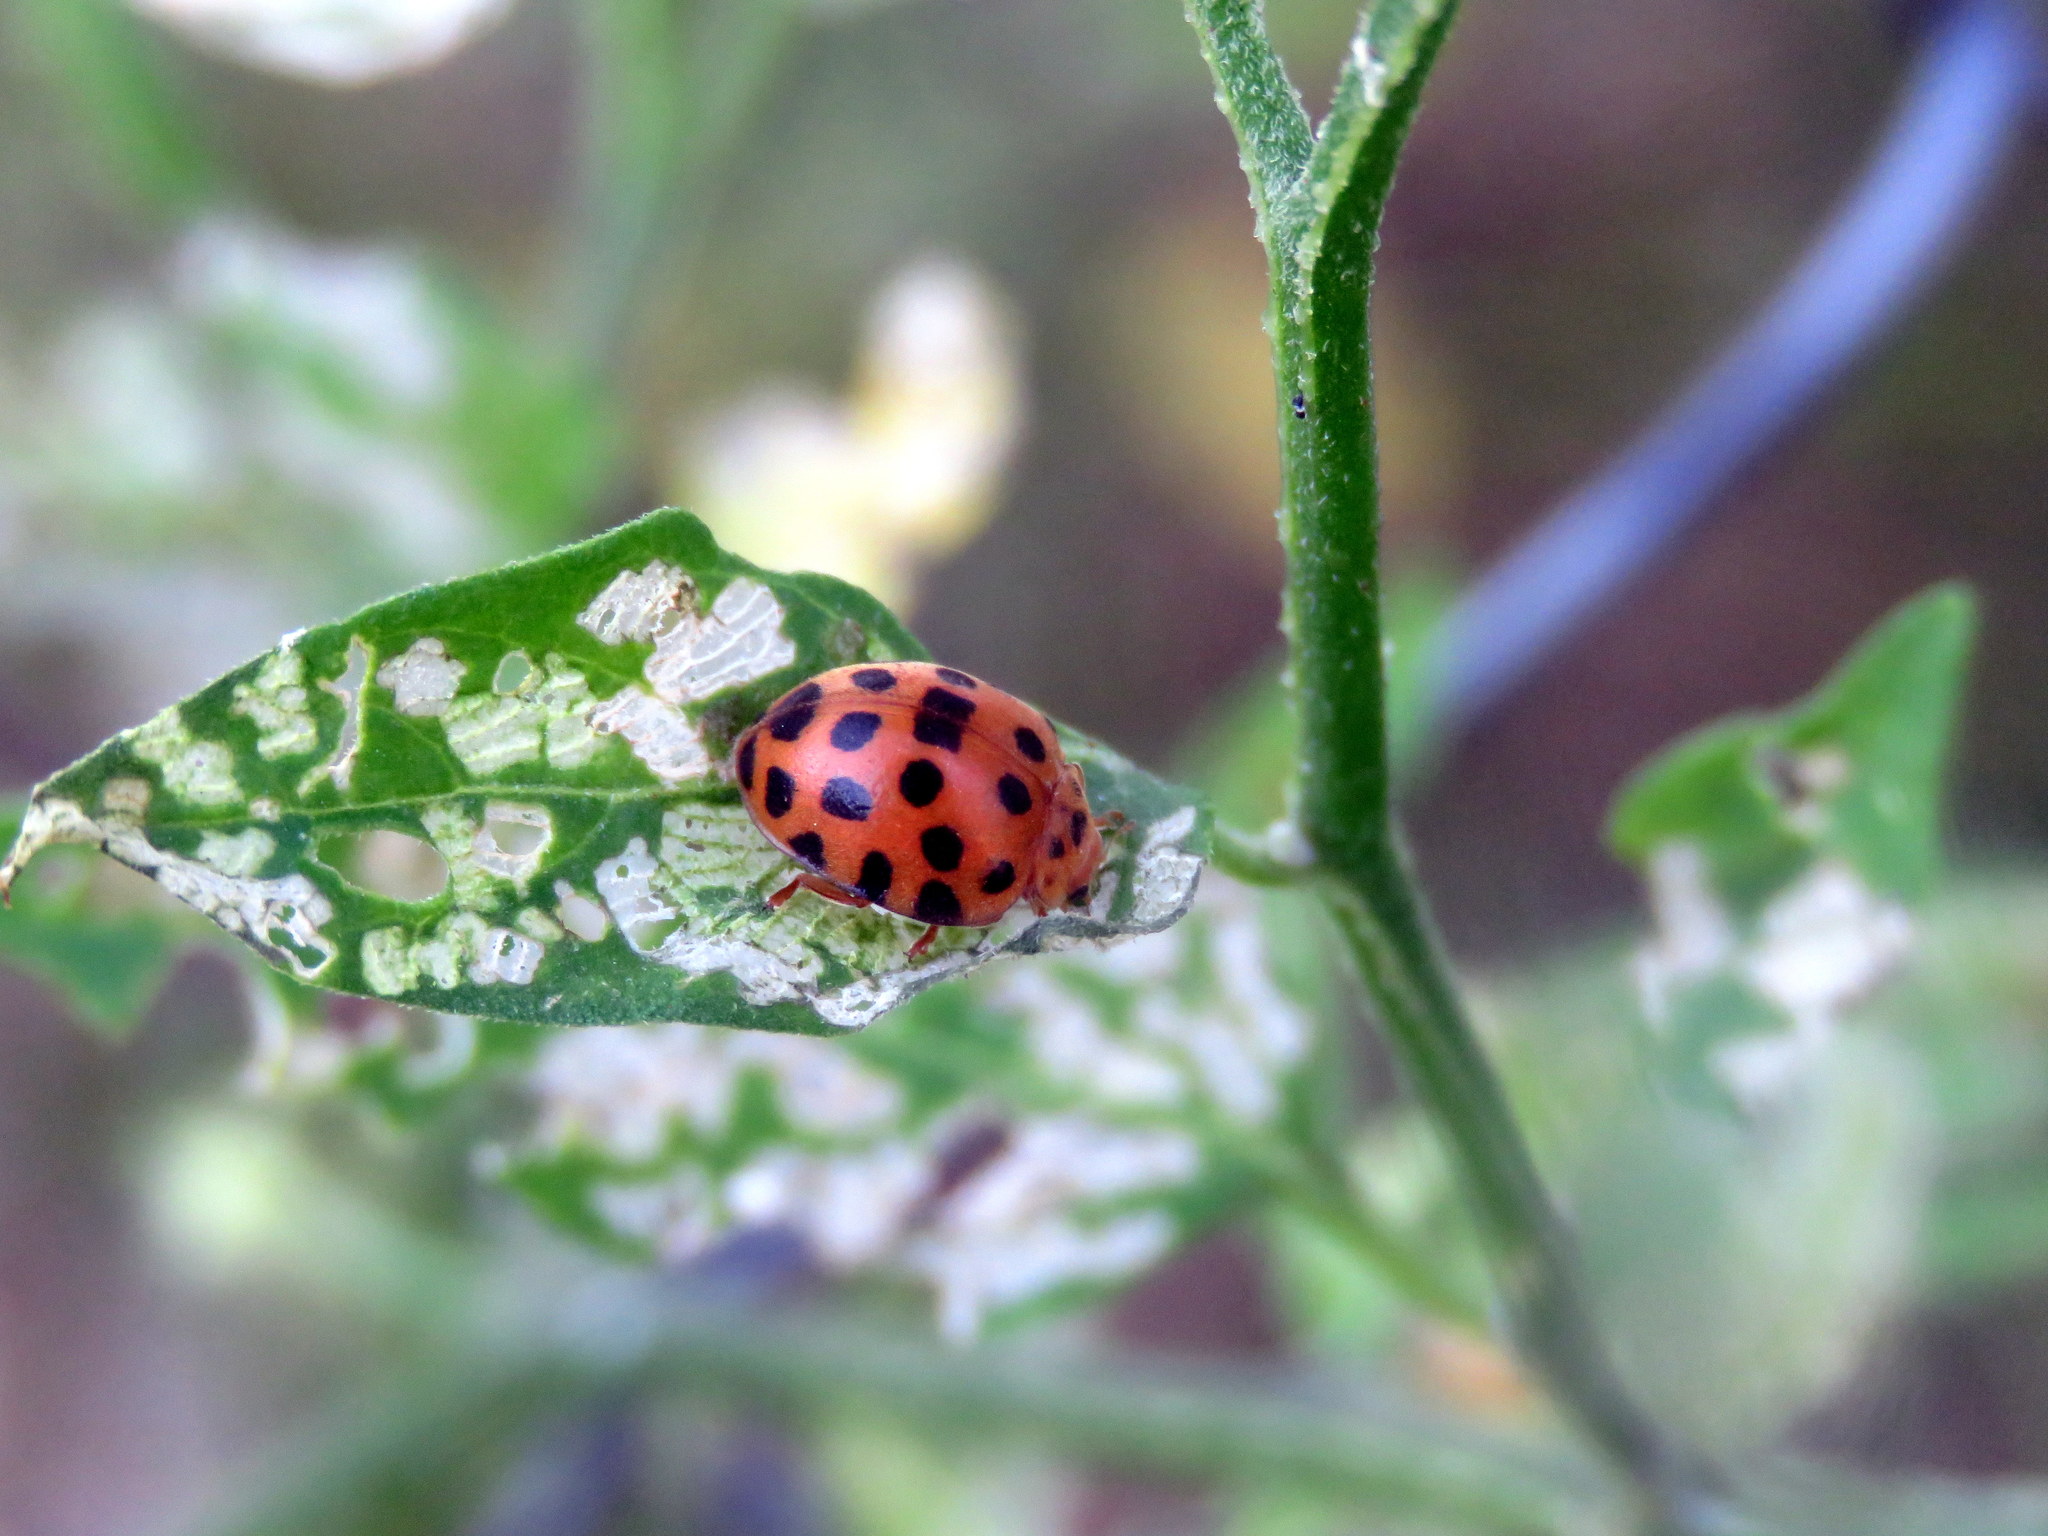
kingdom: Animalia
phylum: Arthropoda
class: Insecta
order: Coleoptera
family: Coccinellidae
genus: Henosepilachna
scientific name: Henosepilachna vigintioctopunctata
